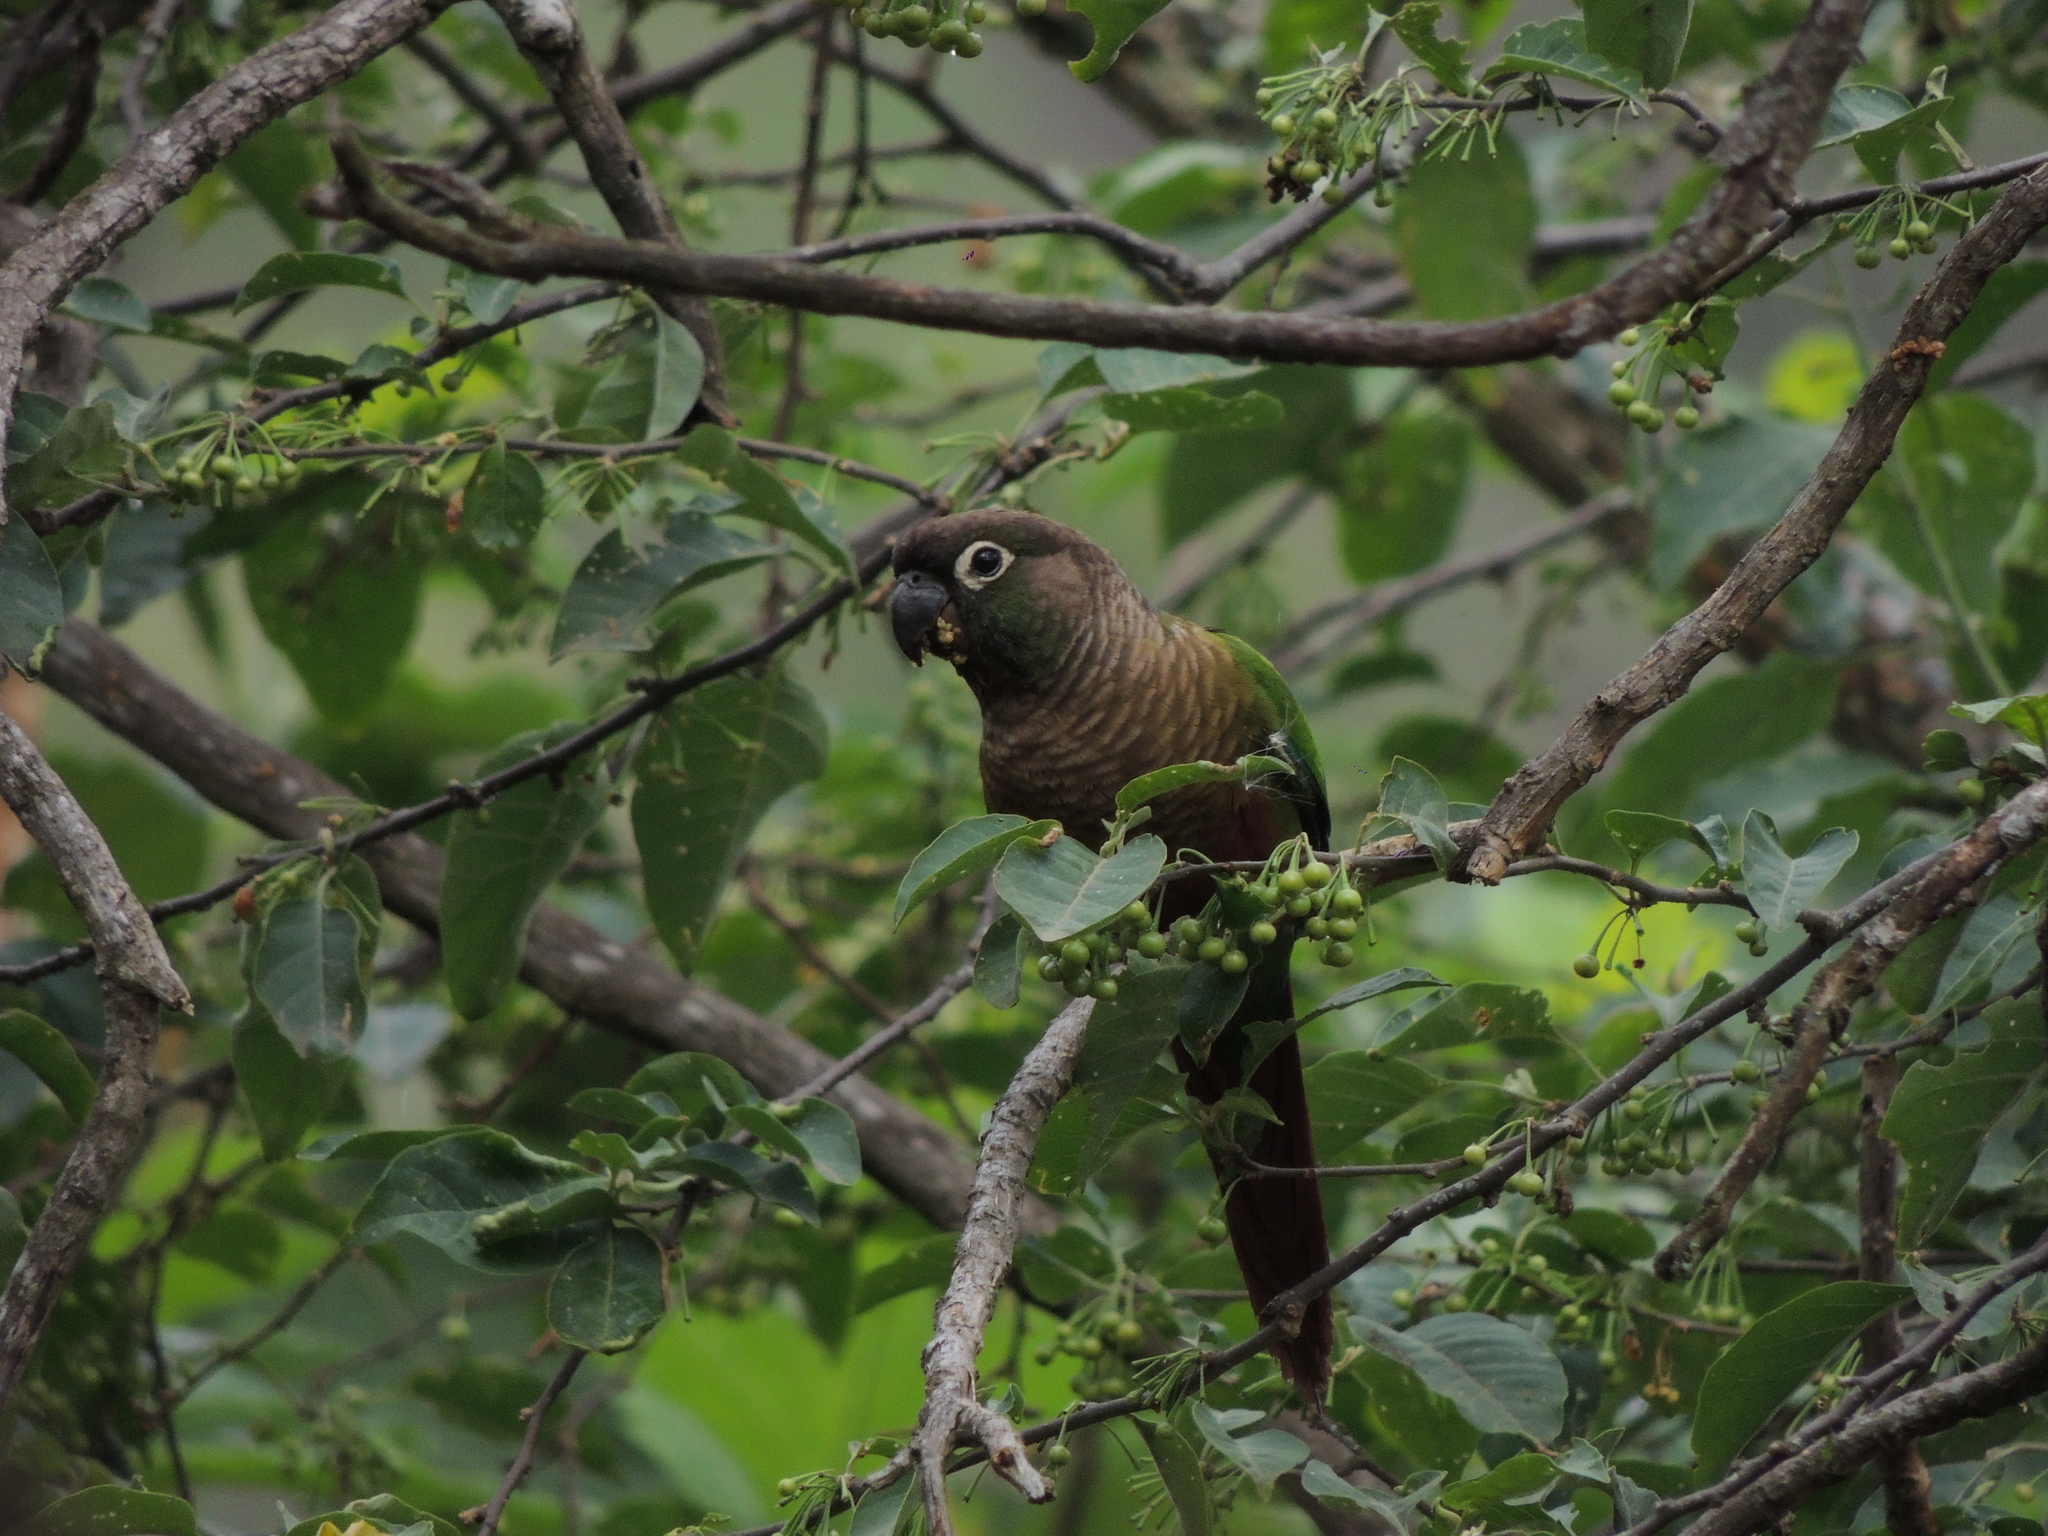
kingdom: Animalia
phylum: Chordata
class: Aves
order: Psittaciformes
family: Psittacidae
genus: Pyrrhura
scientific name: Pyrrhura molinae
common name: Green-cheeked parakeet
